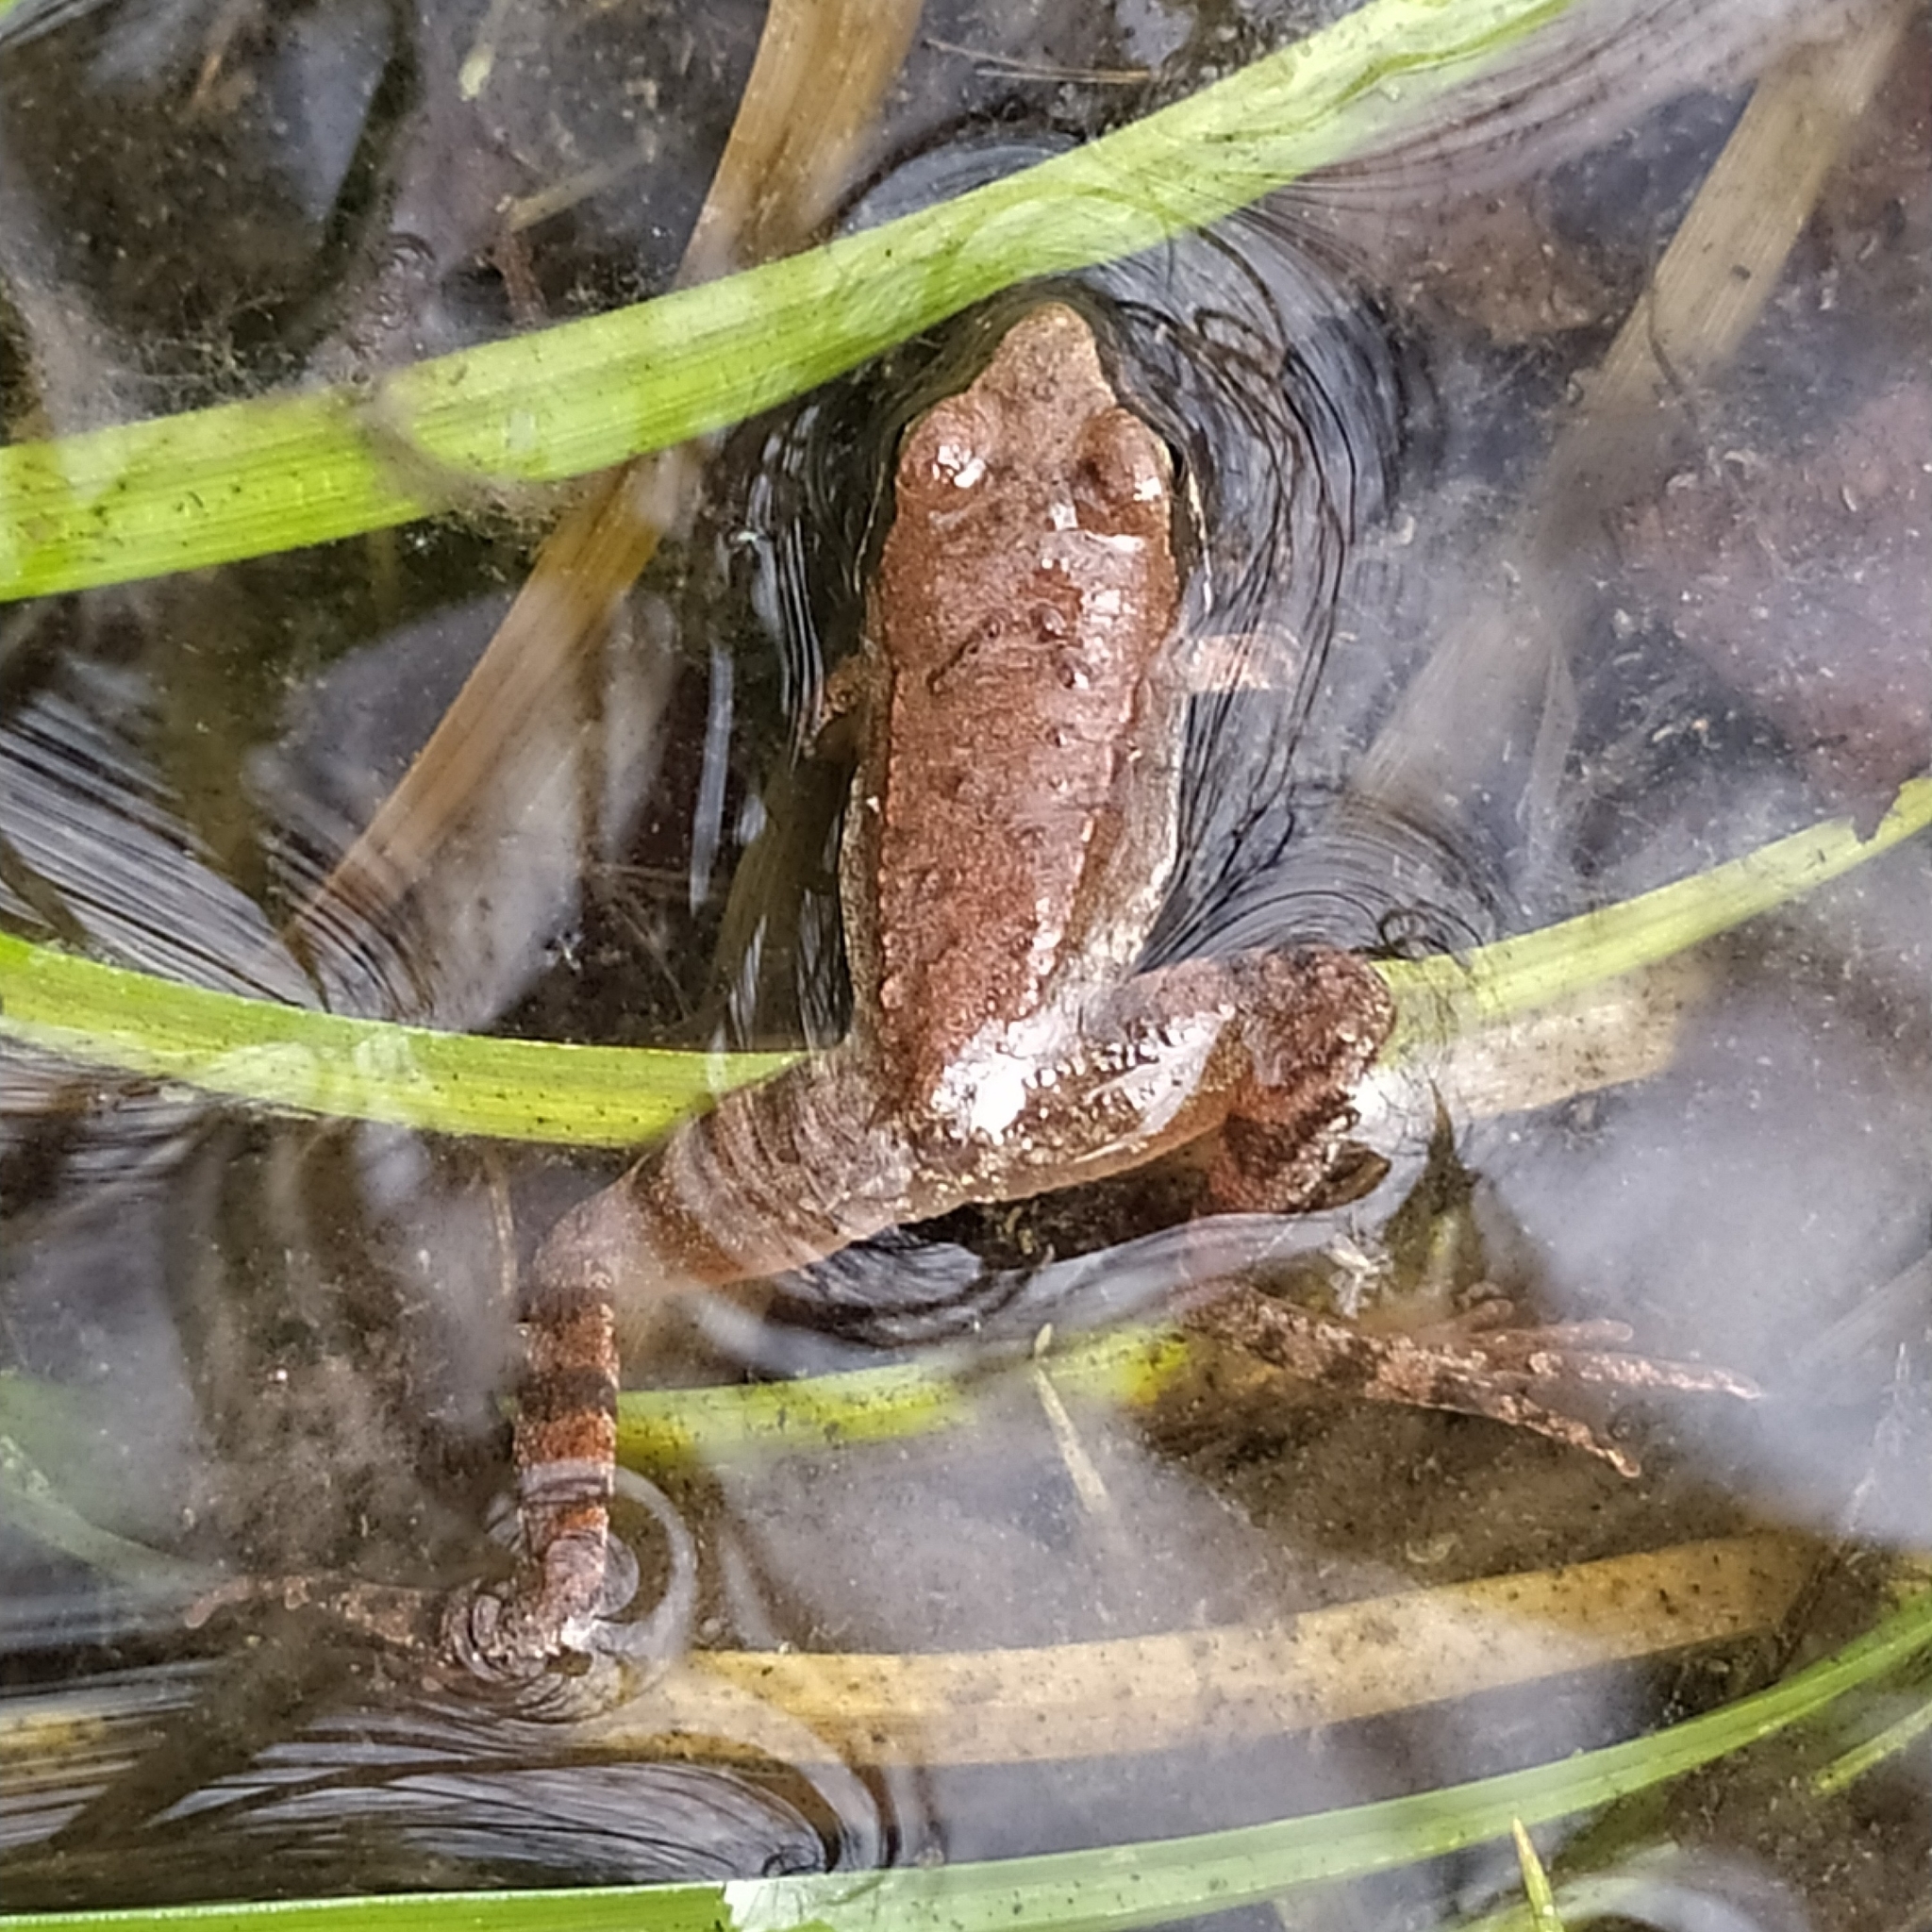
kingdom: Animalia
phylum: Chordata
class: Amphibia
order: Anura
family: Ranidae
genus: Rana
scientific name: Rana italica
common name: Italian stream frog
